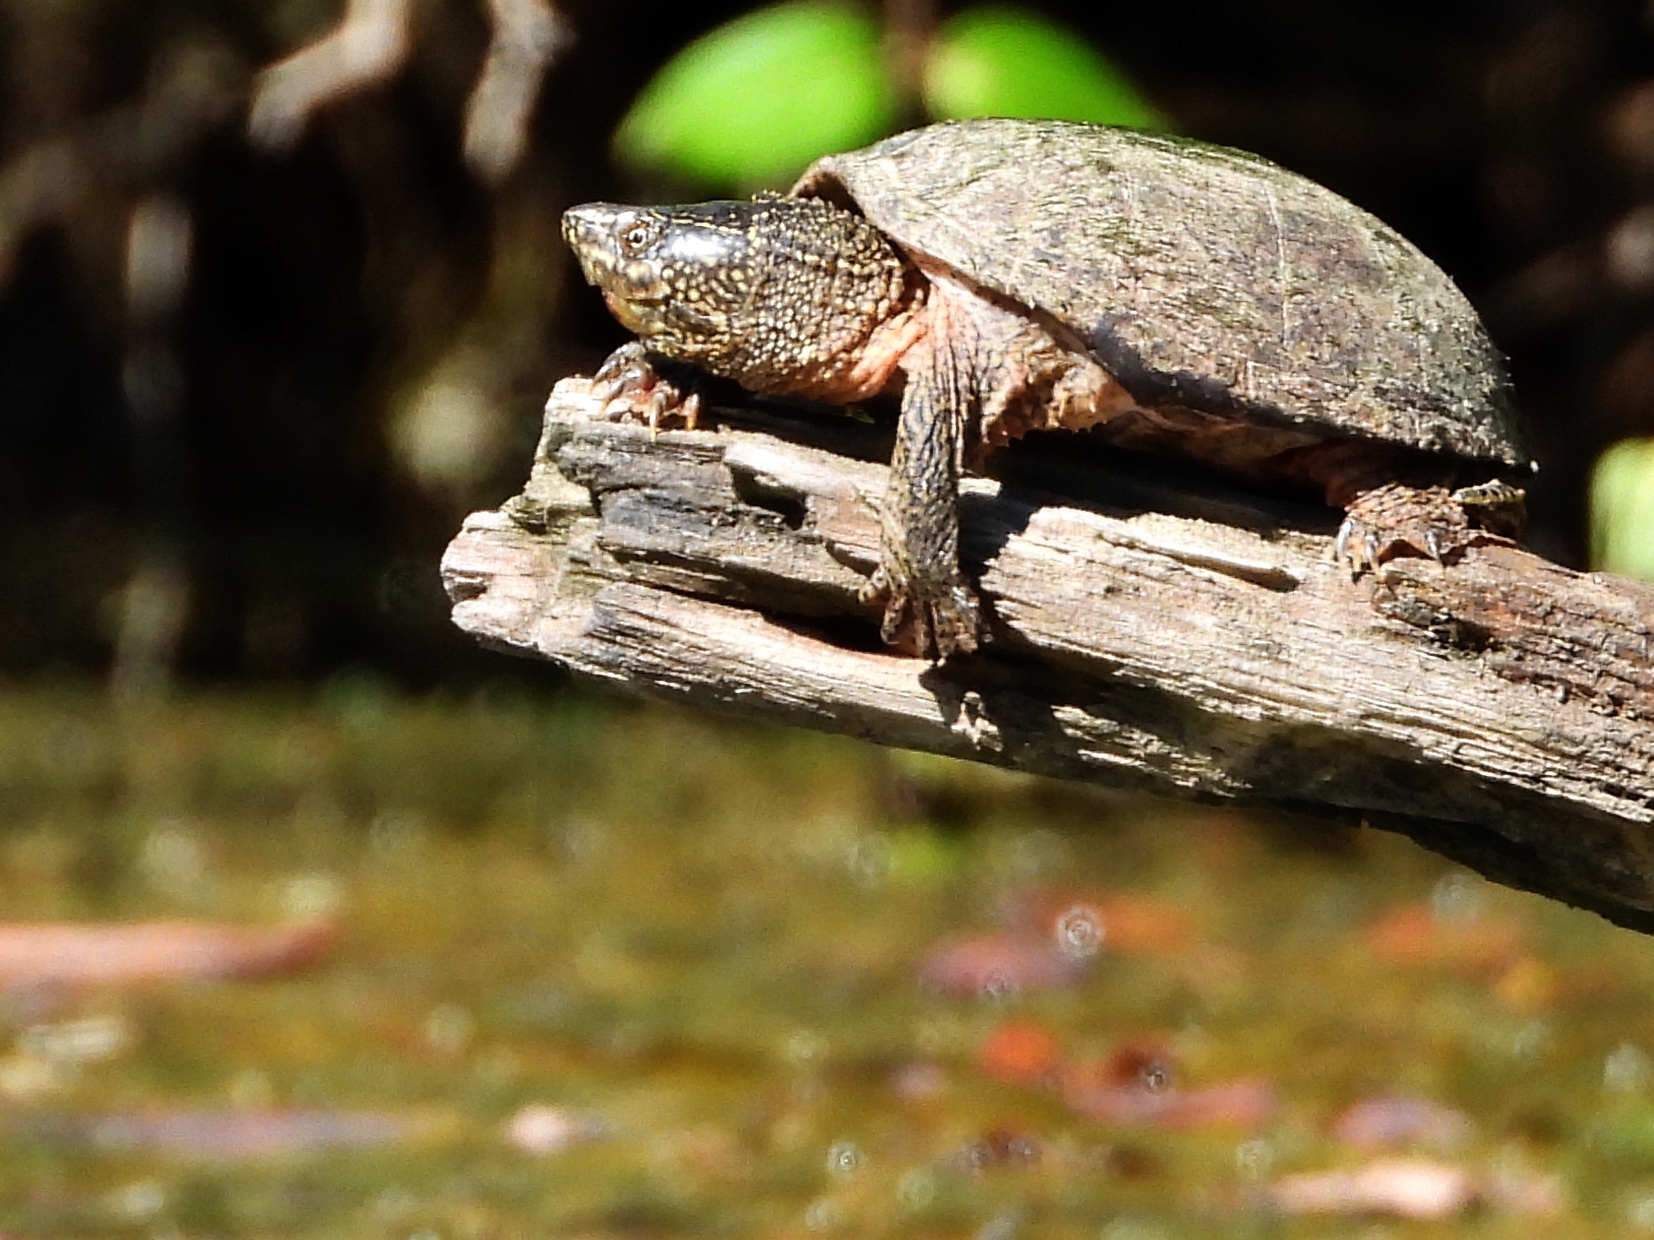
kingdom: Animalia
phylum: Chordata
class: Testudines
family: Kinosternidae
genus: Sternotherus
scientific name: Sternotherus odoratus
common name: Common musk turtle
